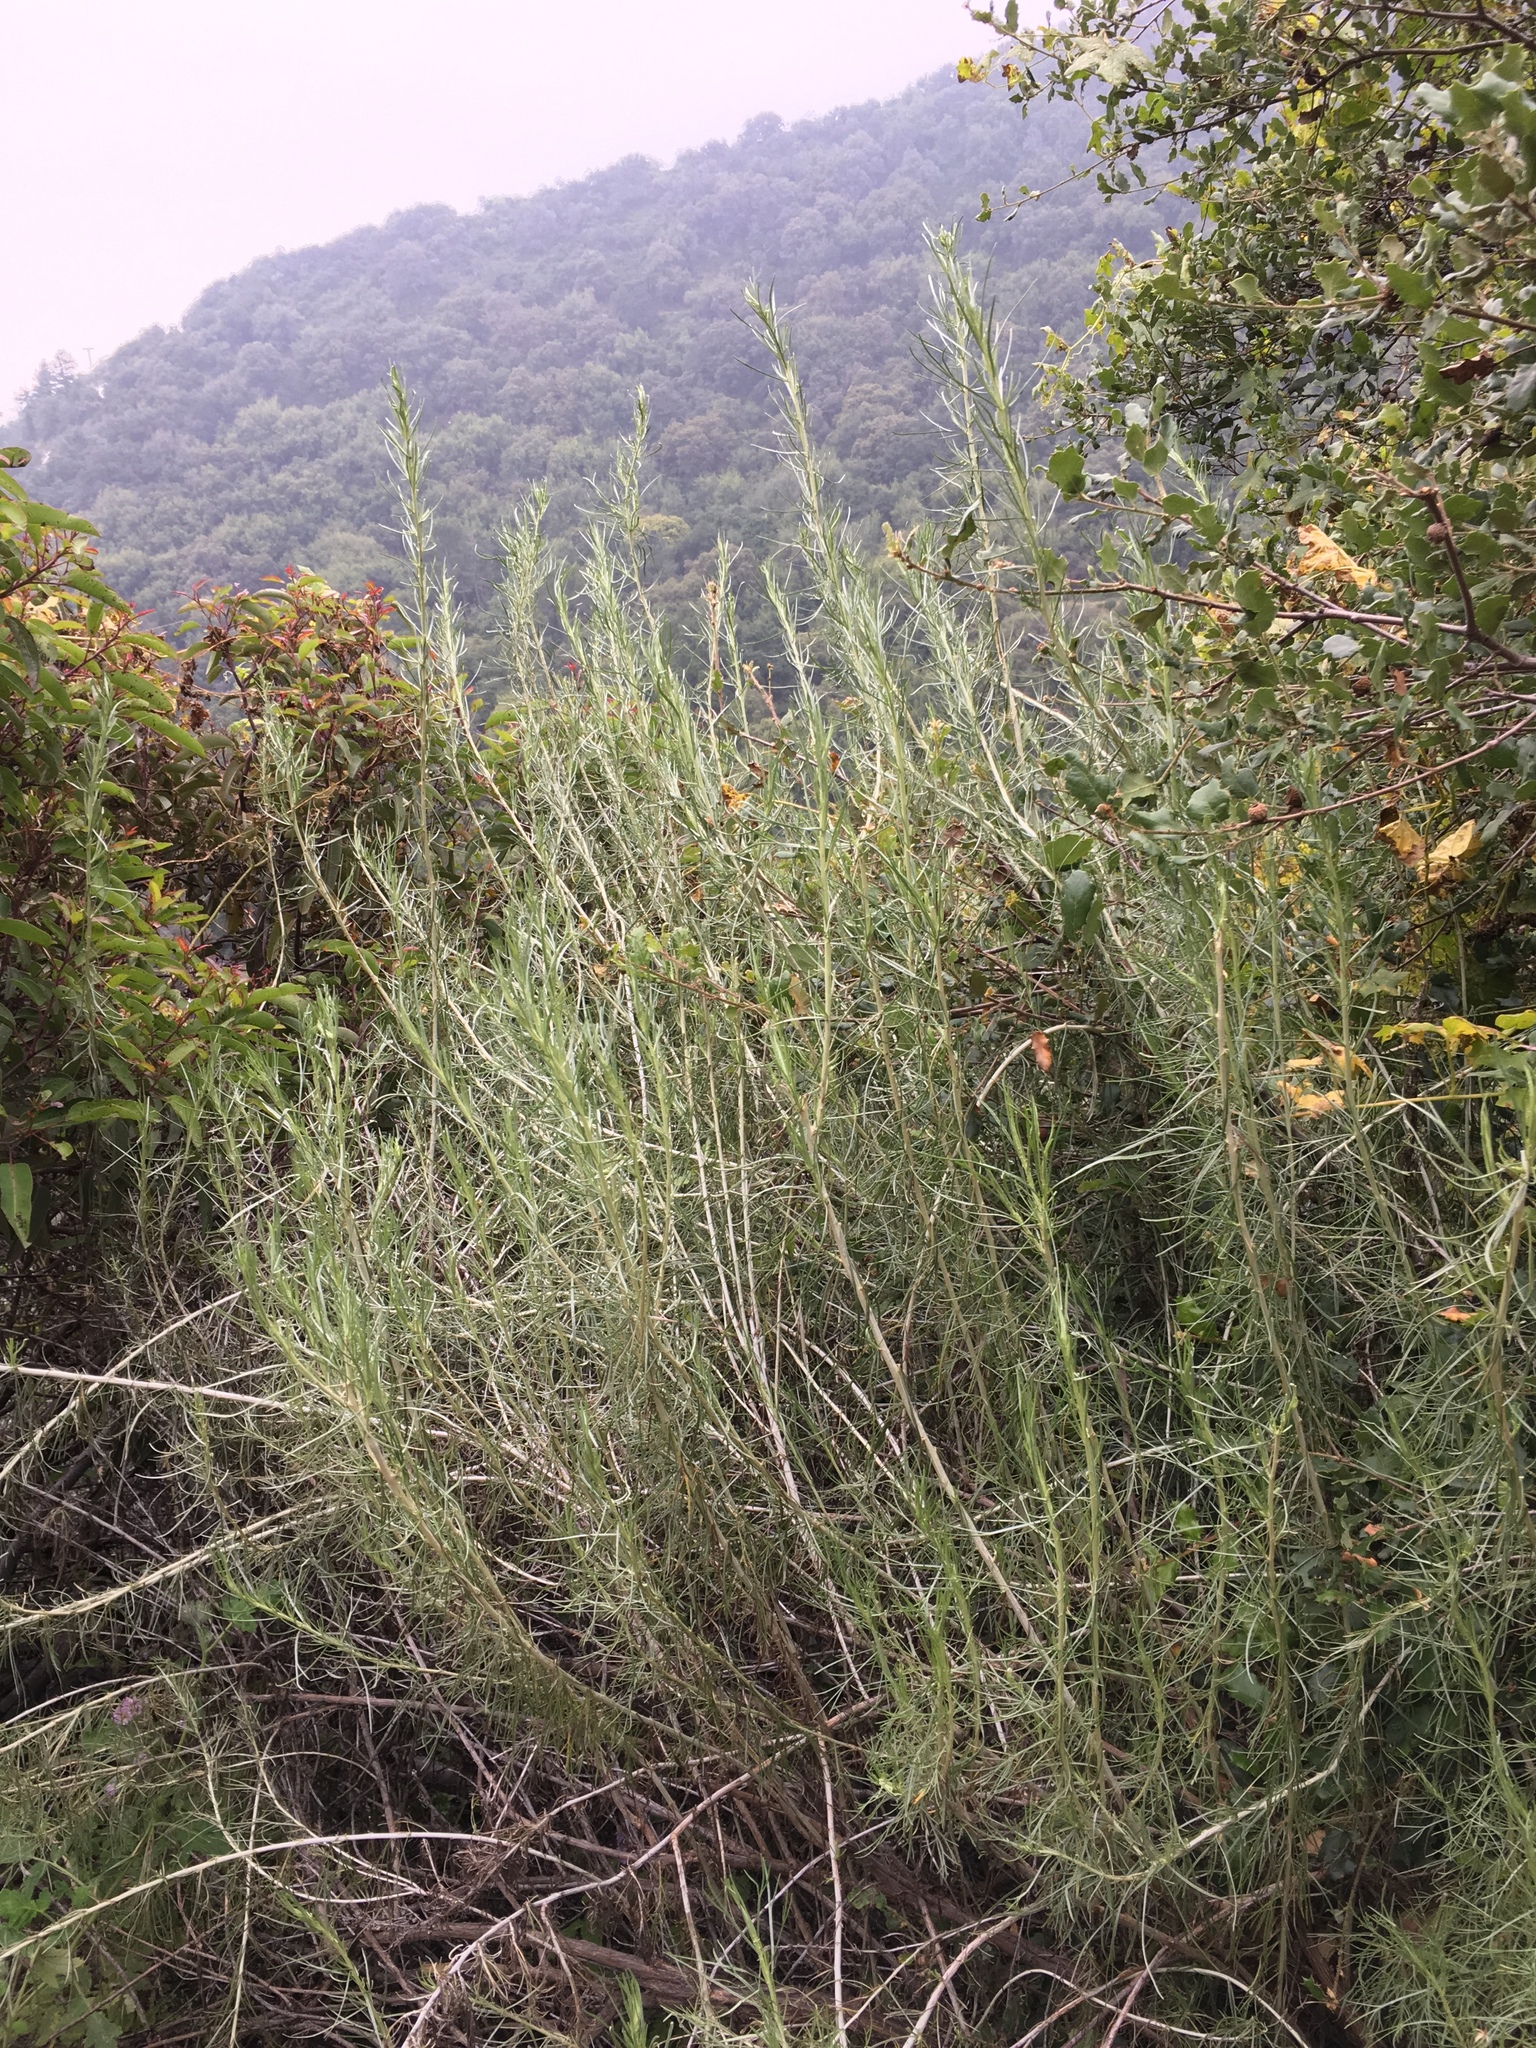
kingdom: Plantae
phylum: Tracheophyta
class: Magnoliopsida
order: Asterales
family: Asteraceae
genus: Artemisia
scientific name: Artemisia californica
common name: California sagebrush
